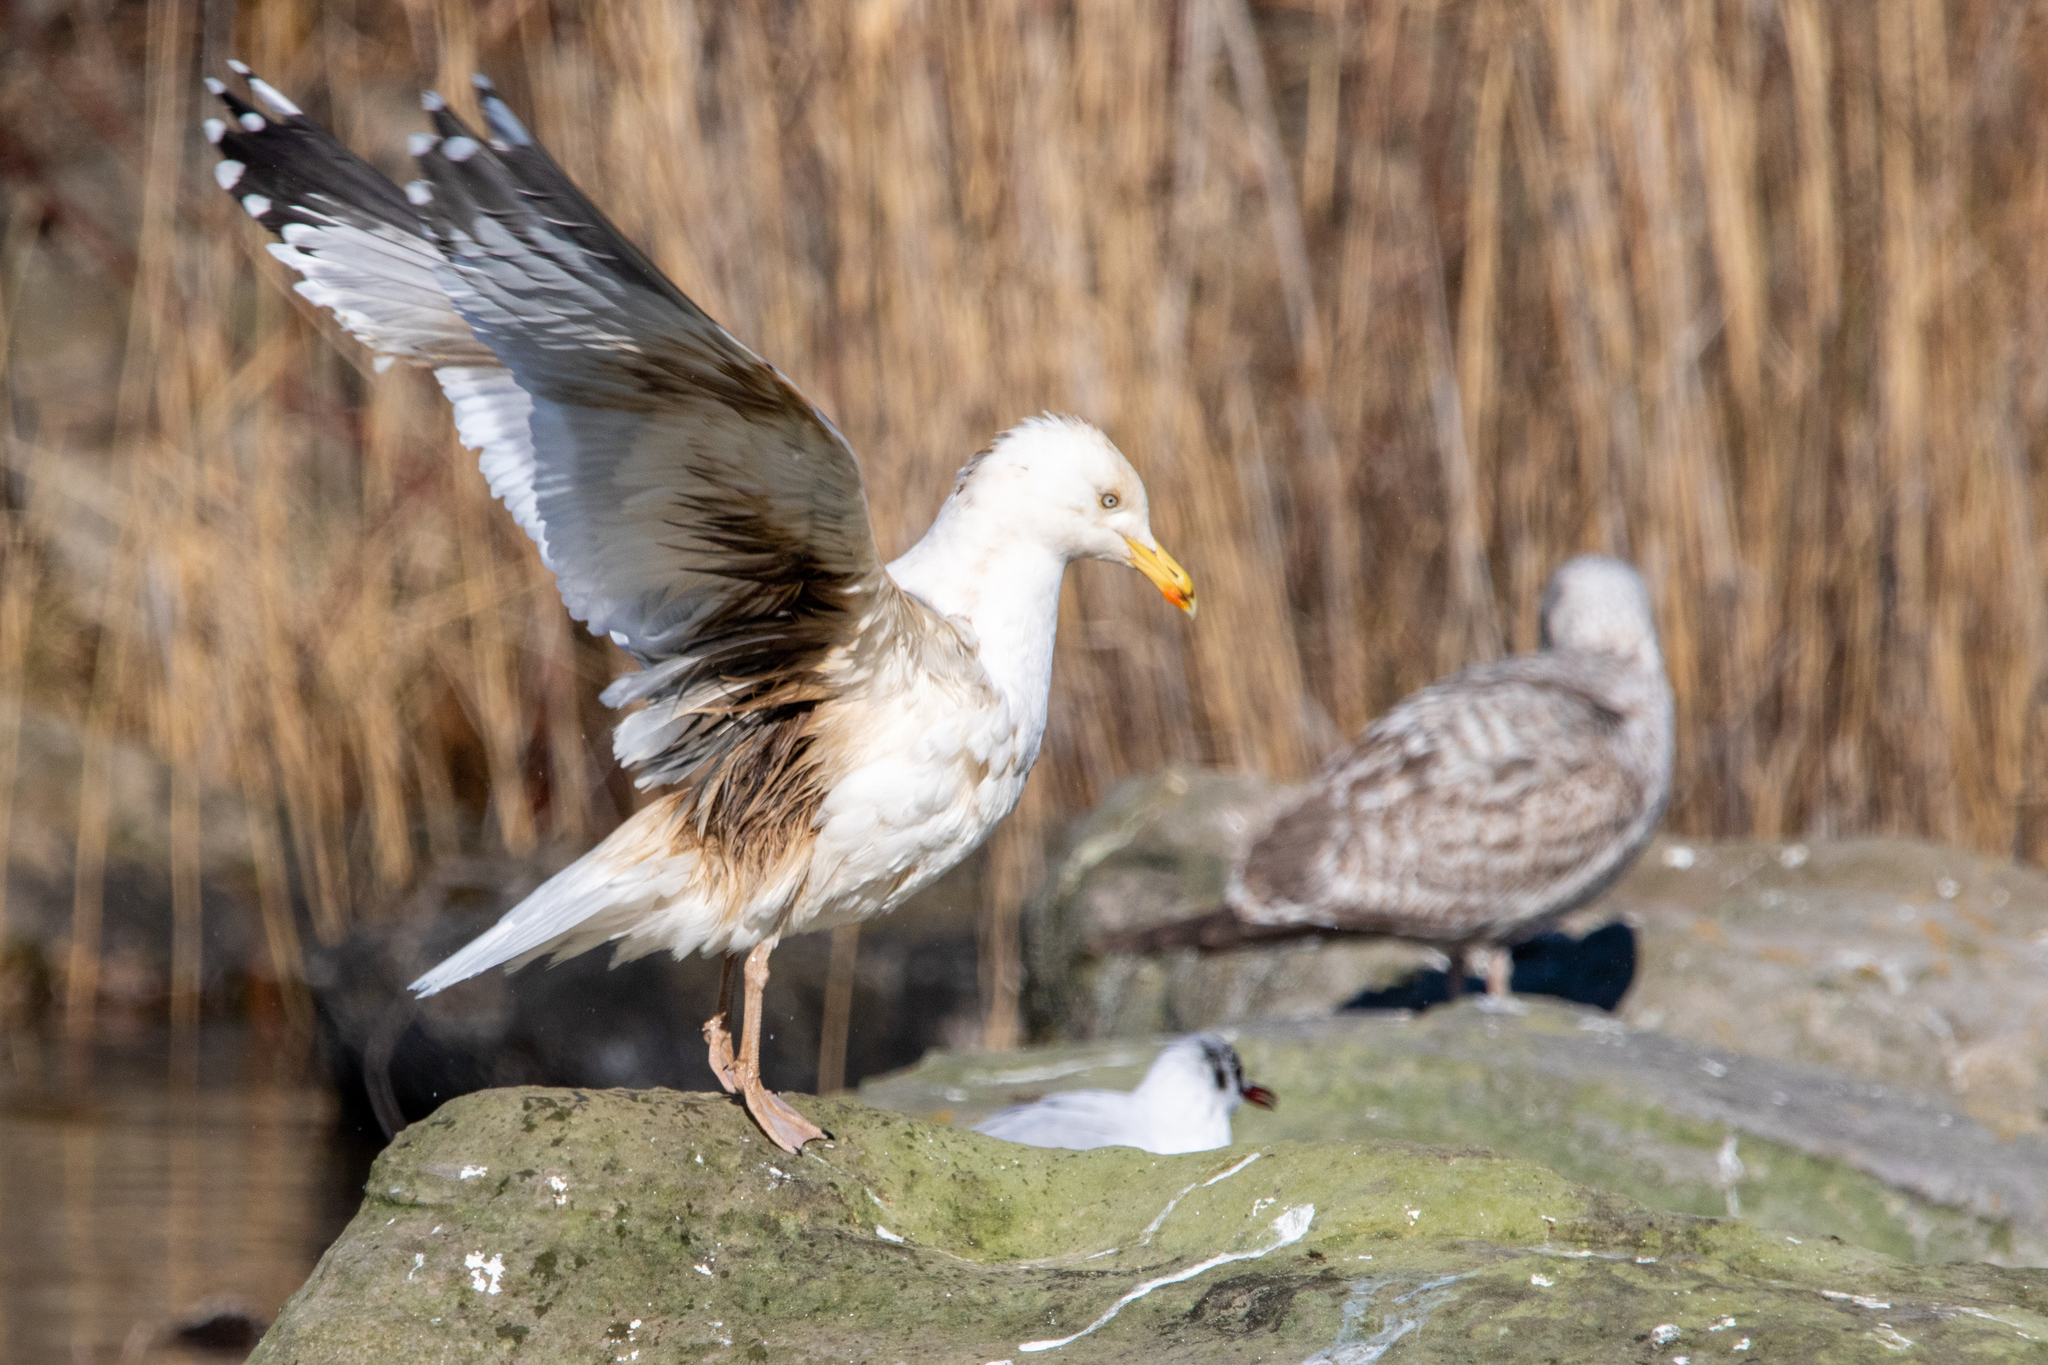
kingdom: Animalia
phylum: Chordata
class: Aves
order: Charadriiformes
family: Laridae
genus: Larus
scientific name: Larus argentatus
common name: Herring gull
